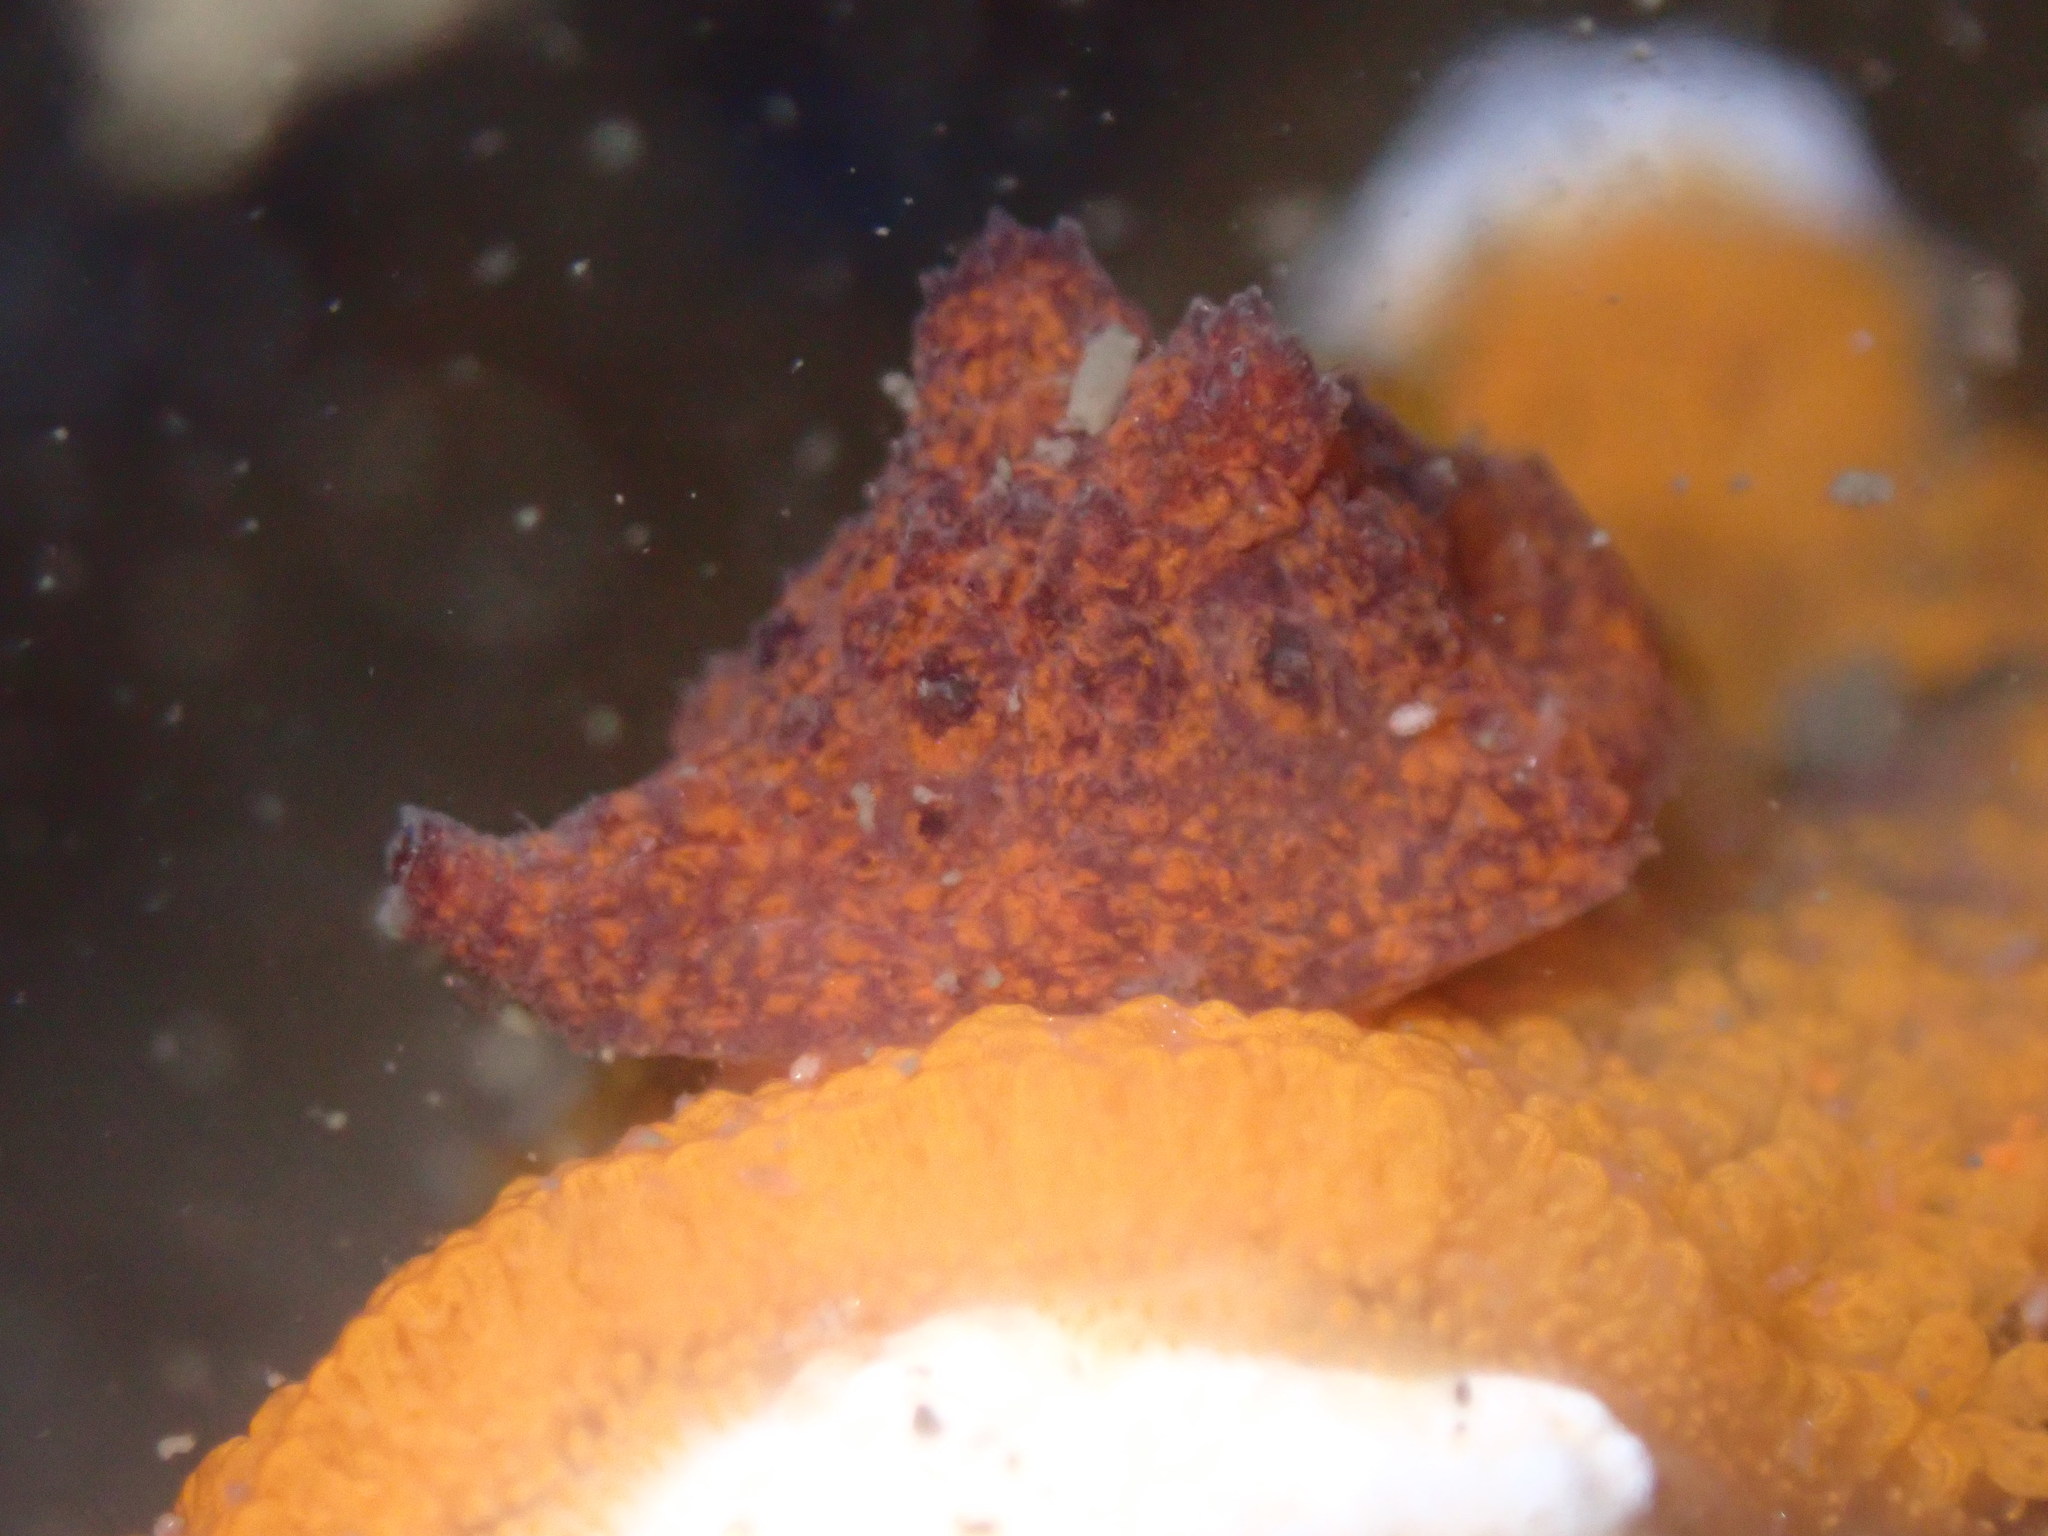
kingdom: Animalia
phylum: Mollusca
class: Gastropoda
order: Littorinimorpha
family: Velutinidae
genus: Hainotis
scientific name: Hainotis sharonae
